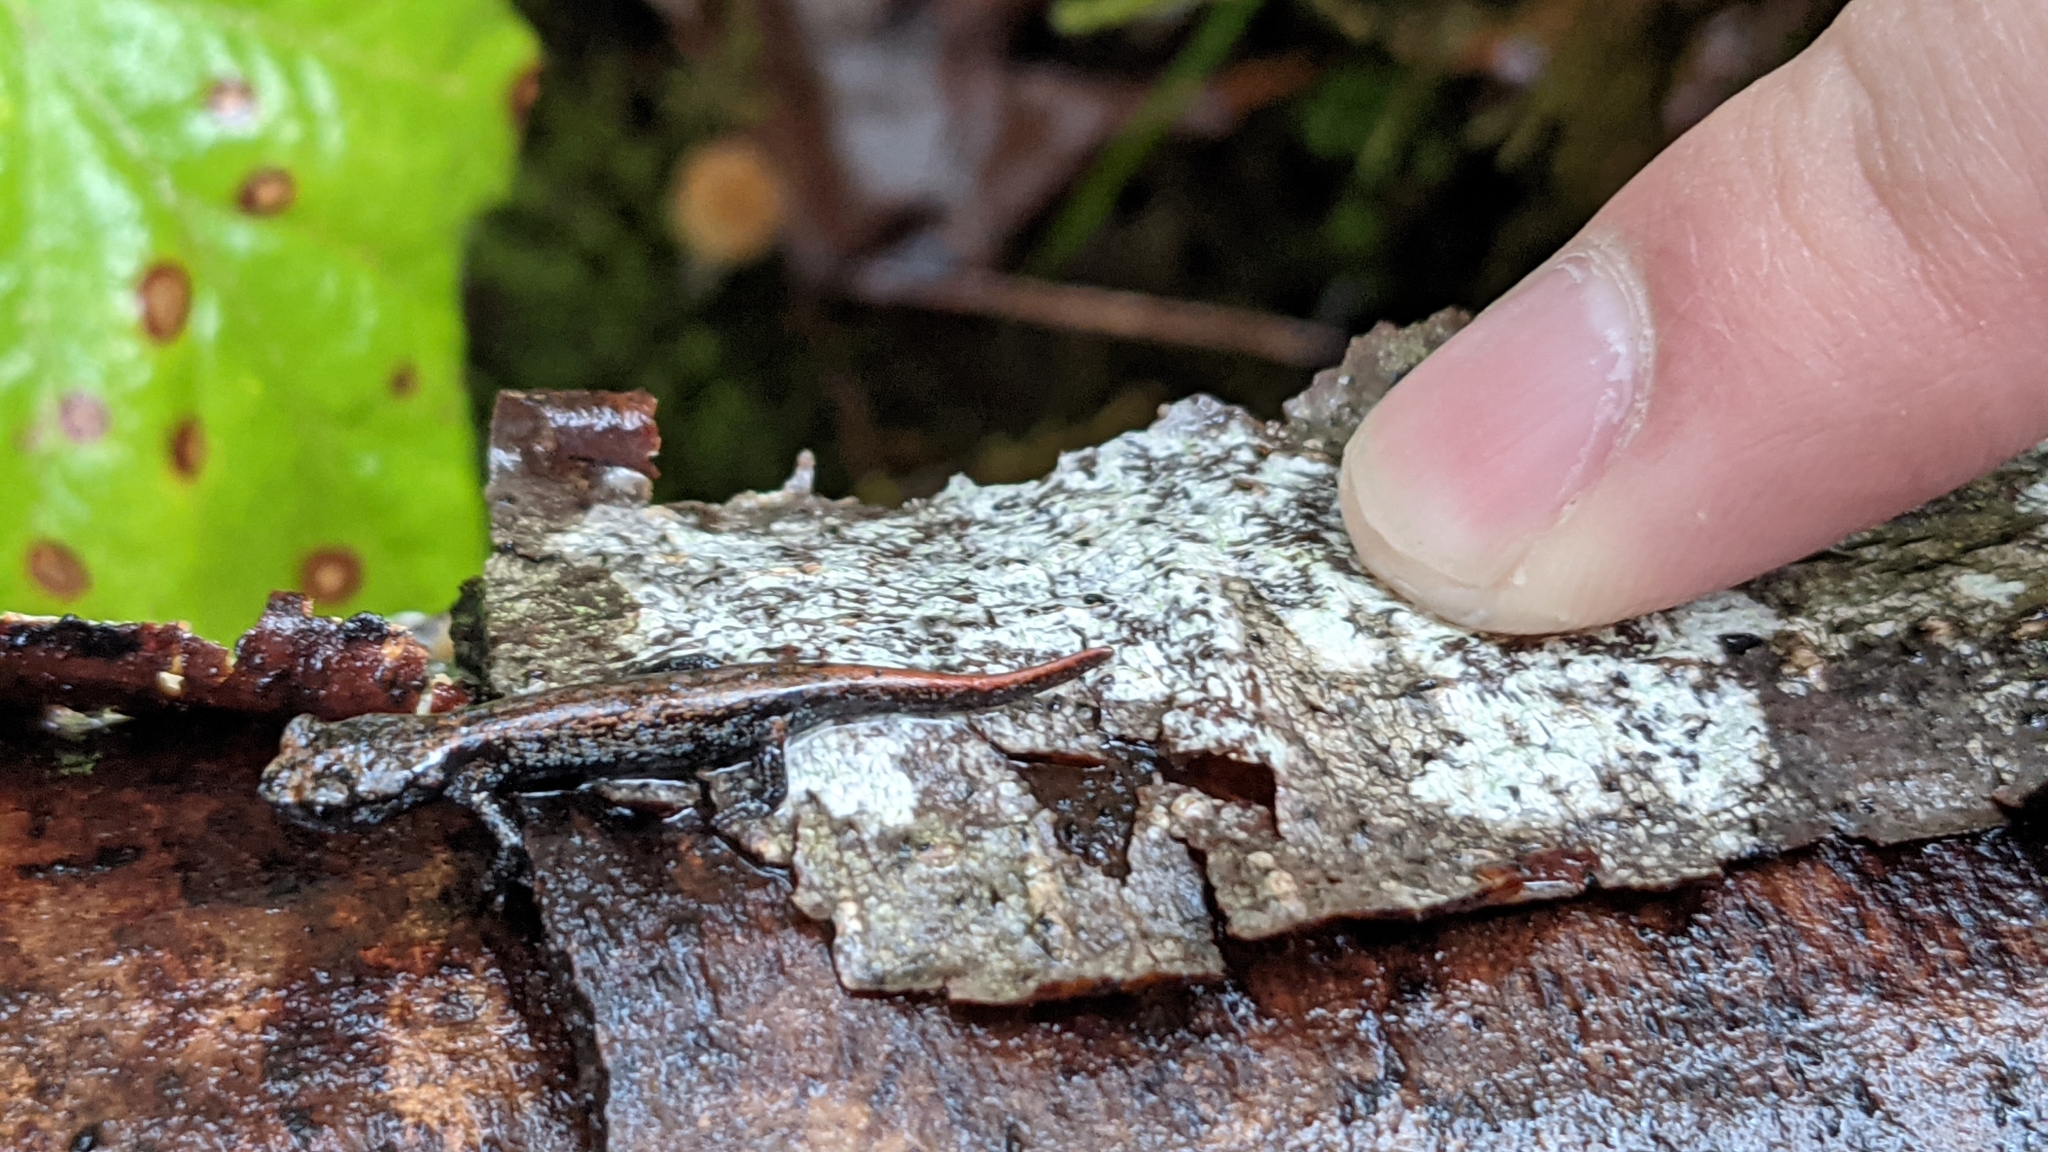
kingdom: Animalia
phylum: Chordata
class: Amphibia
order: Caudata
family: Plethodontidae
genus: Aneides
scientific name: Aneides ferreus
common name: Clouded salamander
